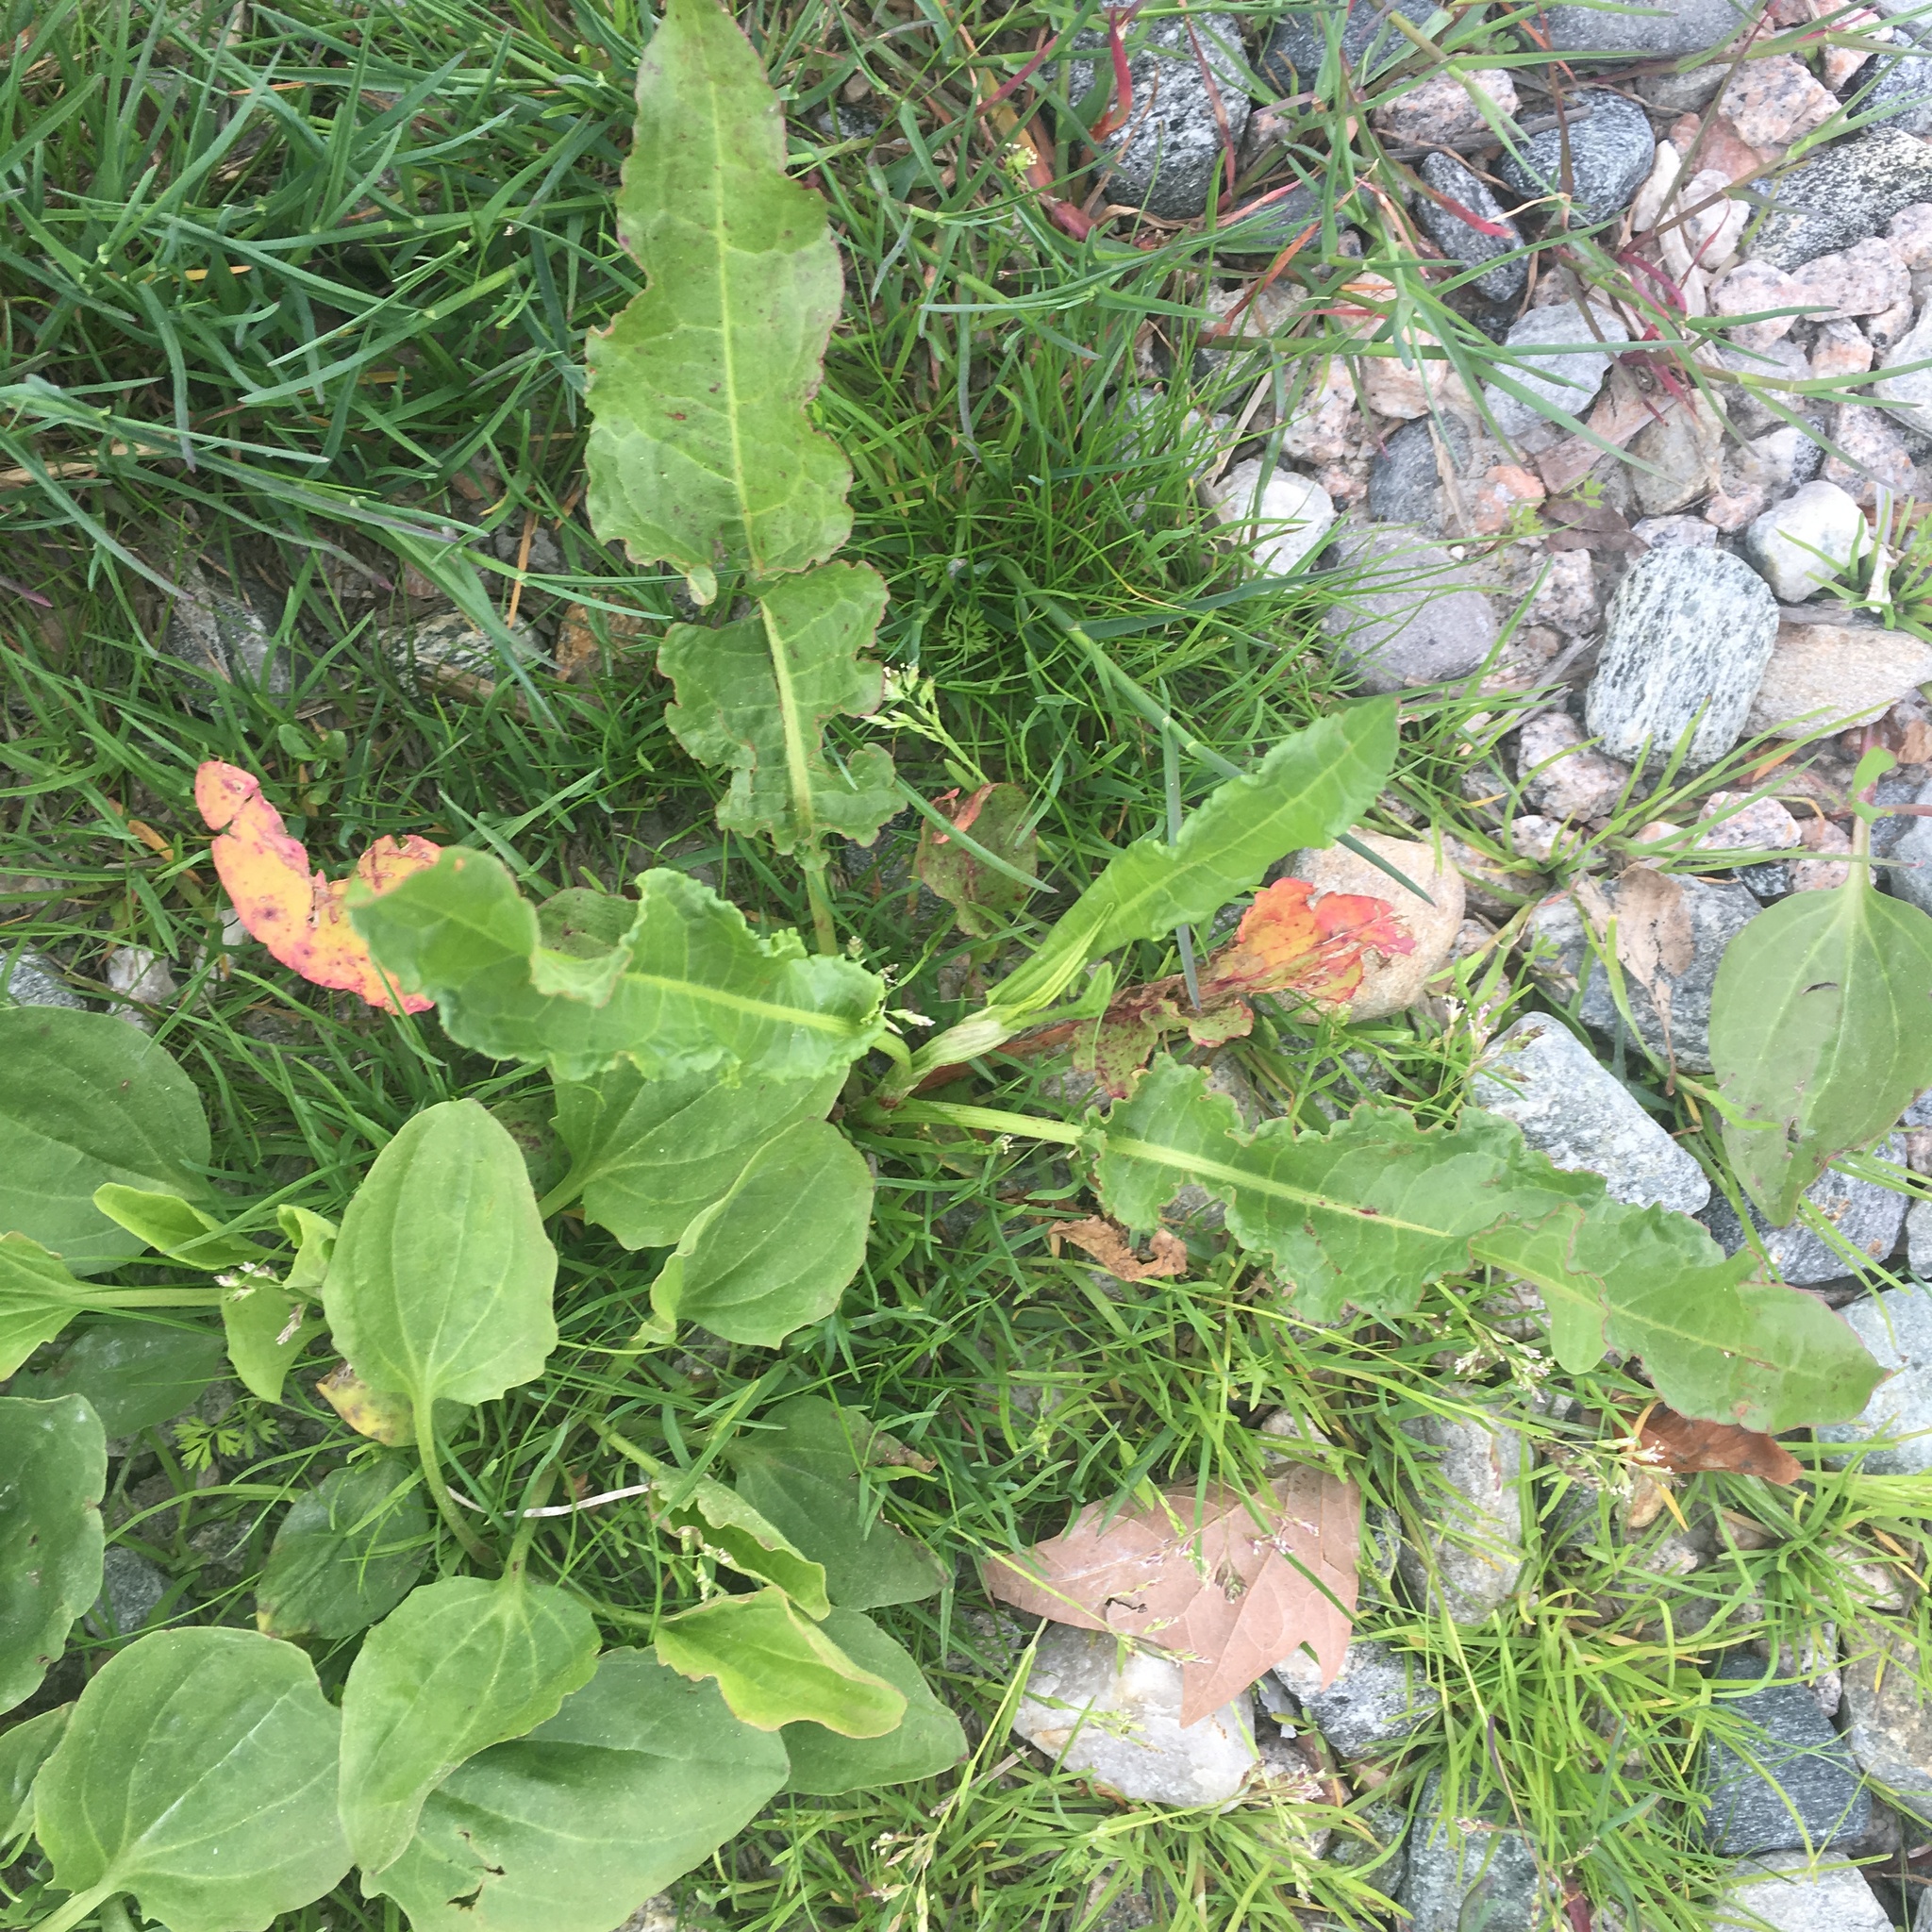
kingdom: Plantae
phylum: Tracheophyta
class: Magnoliopsida
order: Caryophyllales
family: Polygonaceae
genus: Rumex
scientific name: Rumex crispus
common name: Curled dock
